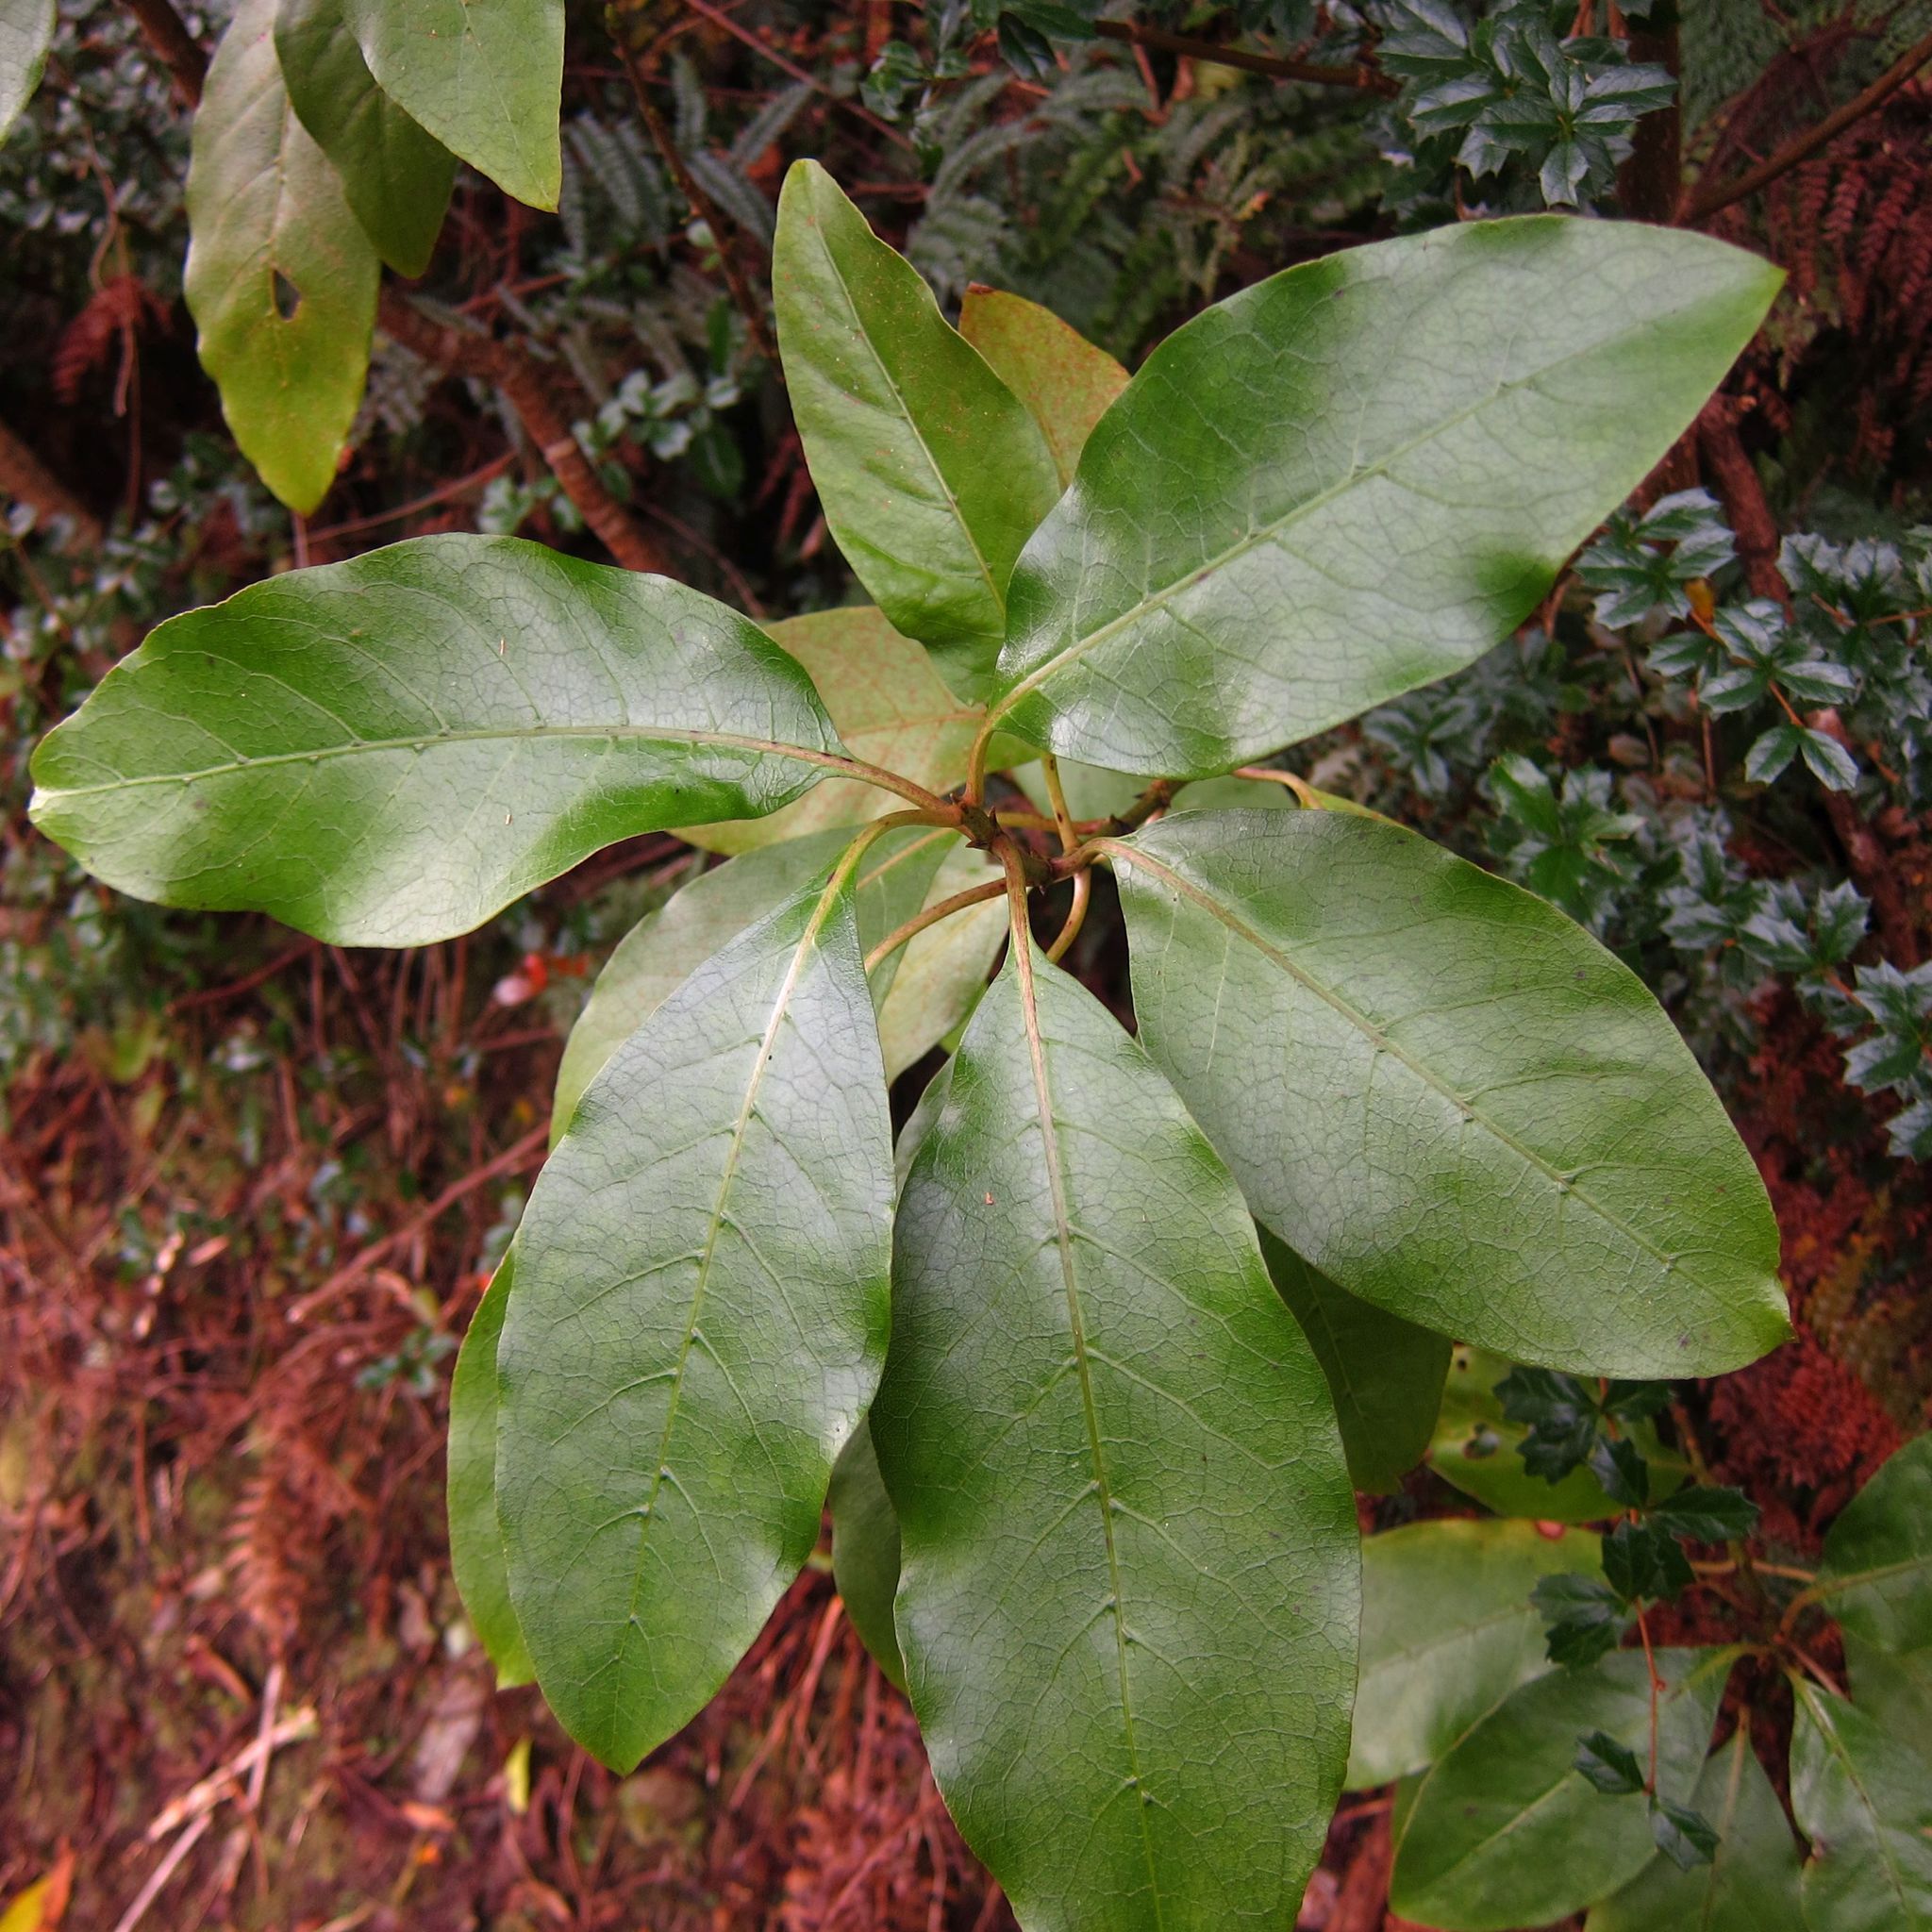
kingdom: Plantae
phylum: Tracheophyta
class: Magnoliopsida
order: Gentianales
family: Rubiaceae
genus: Coprosma
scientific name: Coprosma autumnalis
